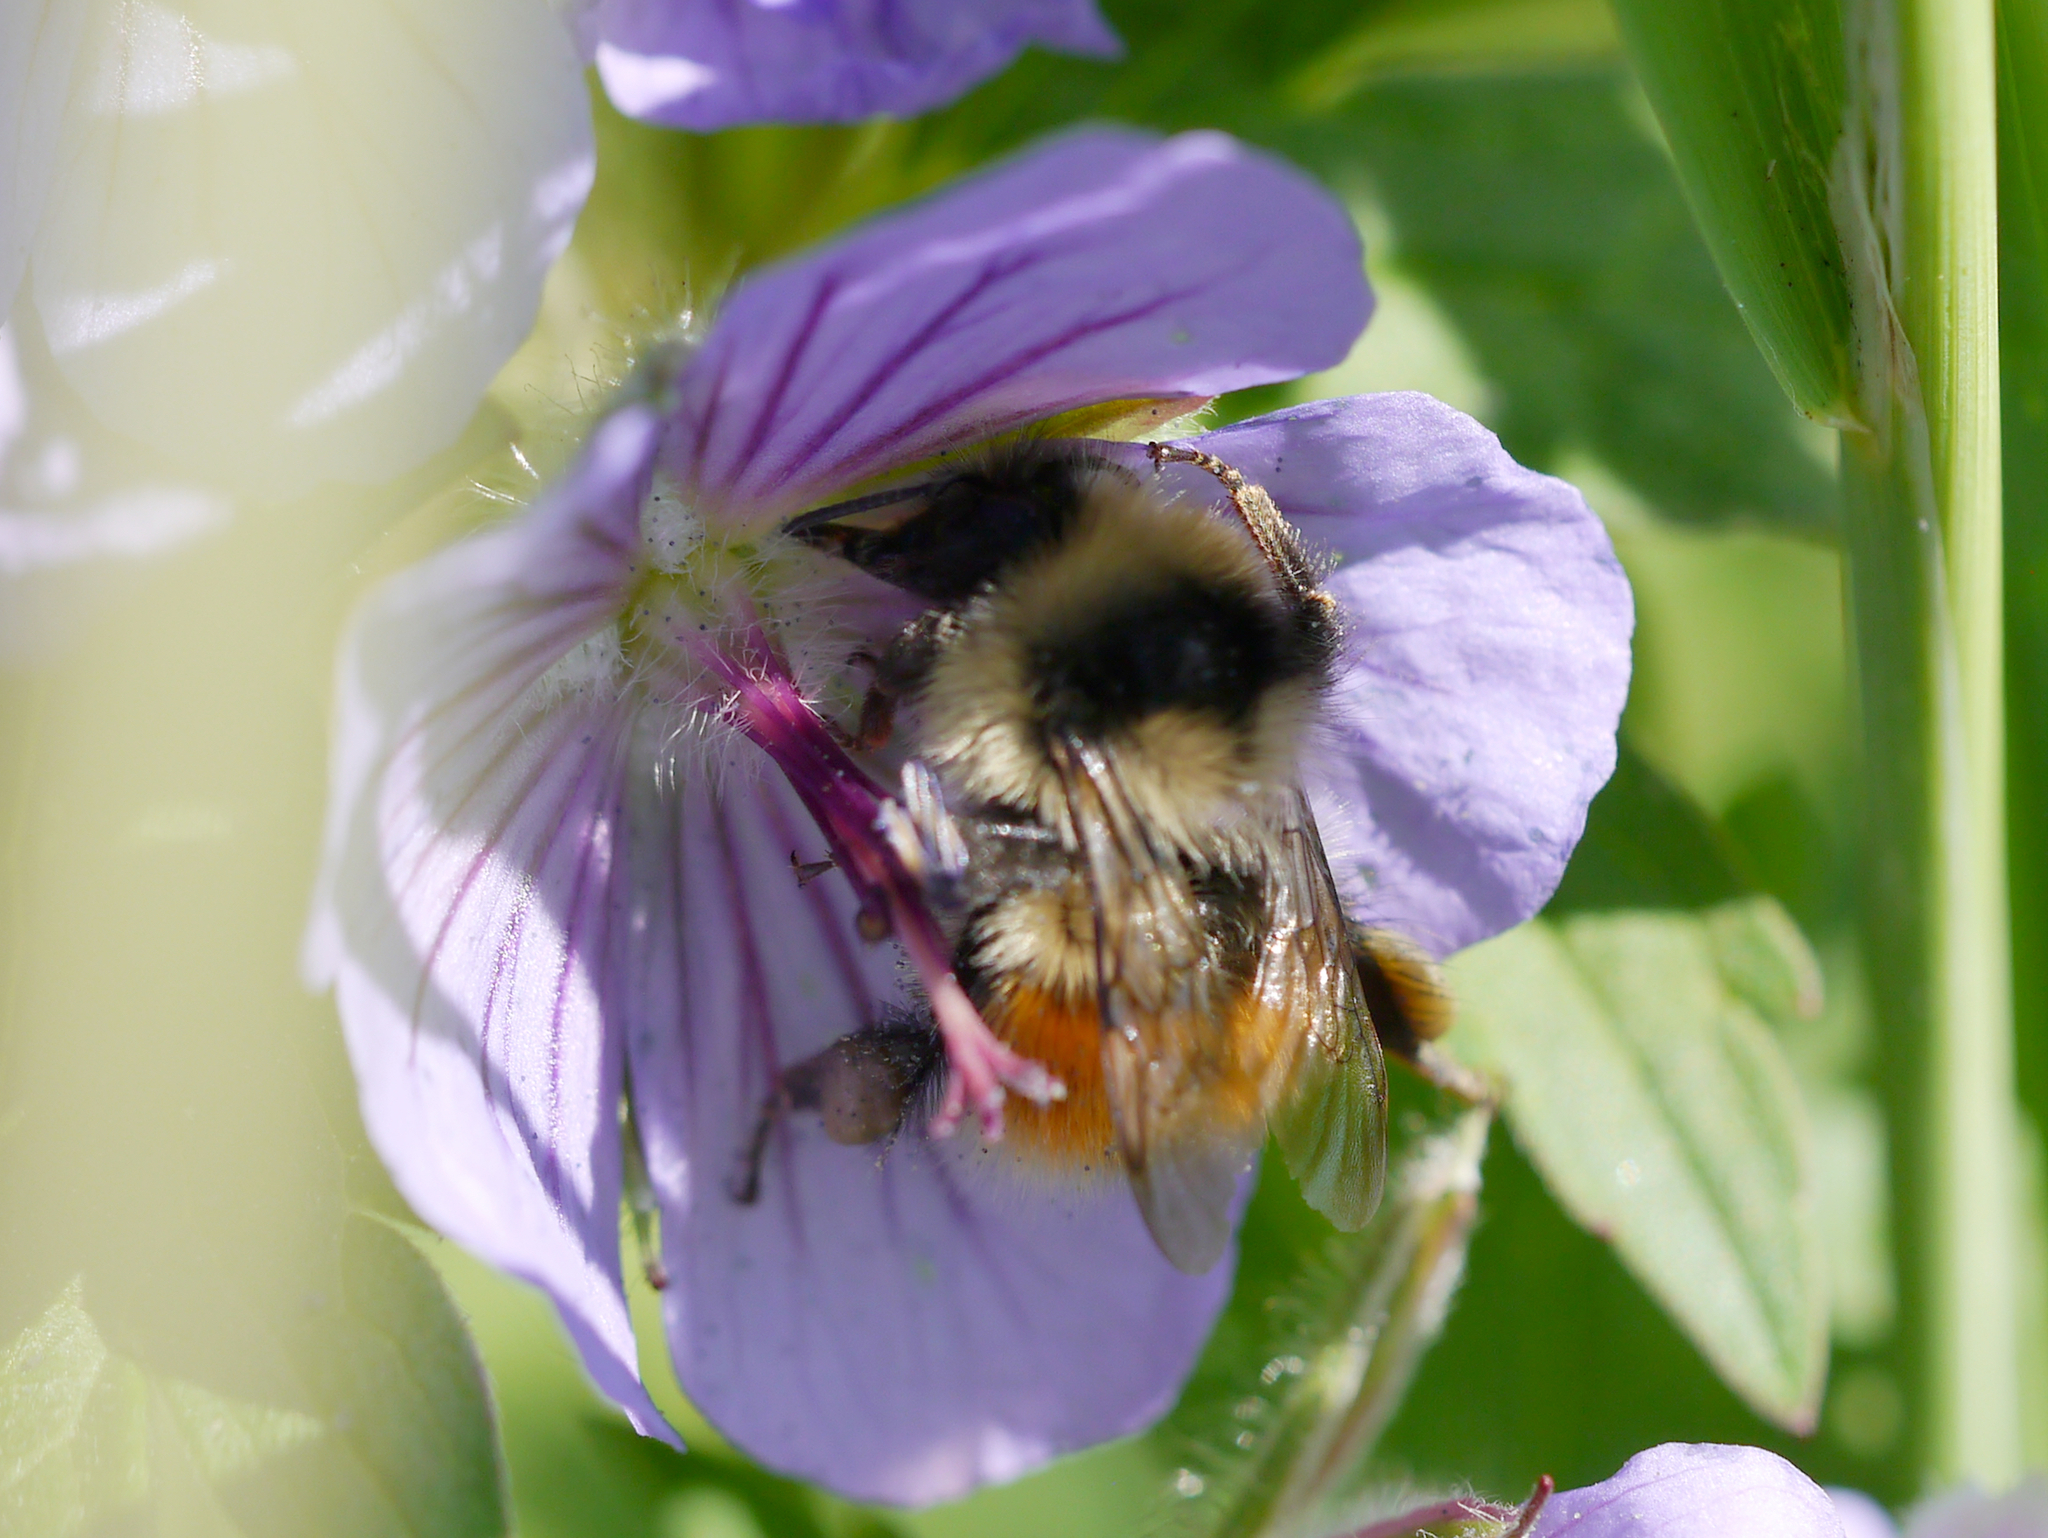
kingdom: Animalia
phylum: Arthropoda
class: Insecta
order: Hymenoptera
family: Apidae
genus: Bombus
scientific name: Bombus sylvicola
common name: Forest bumble bee
